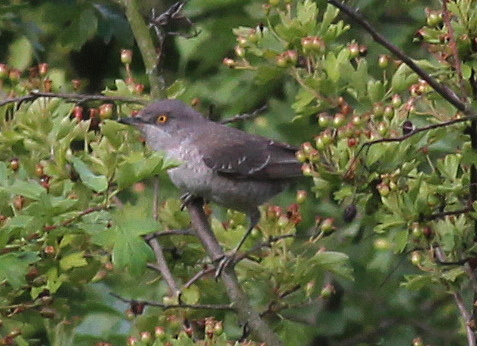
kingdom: Animalia
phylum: Chordata
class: Aves
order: Passeriformes
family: Sylviidae
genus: Sylvia
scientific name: Sylvia nisoria
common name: Barred warbler
